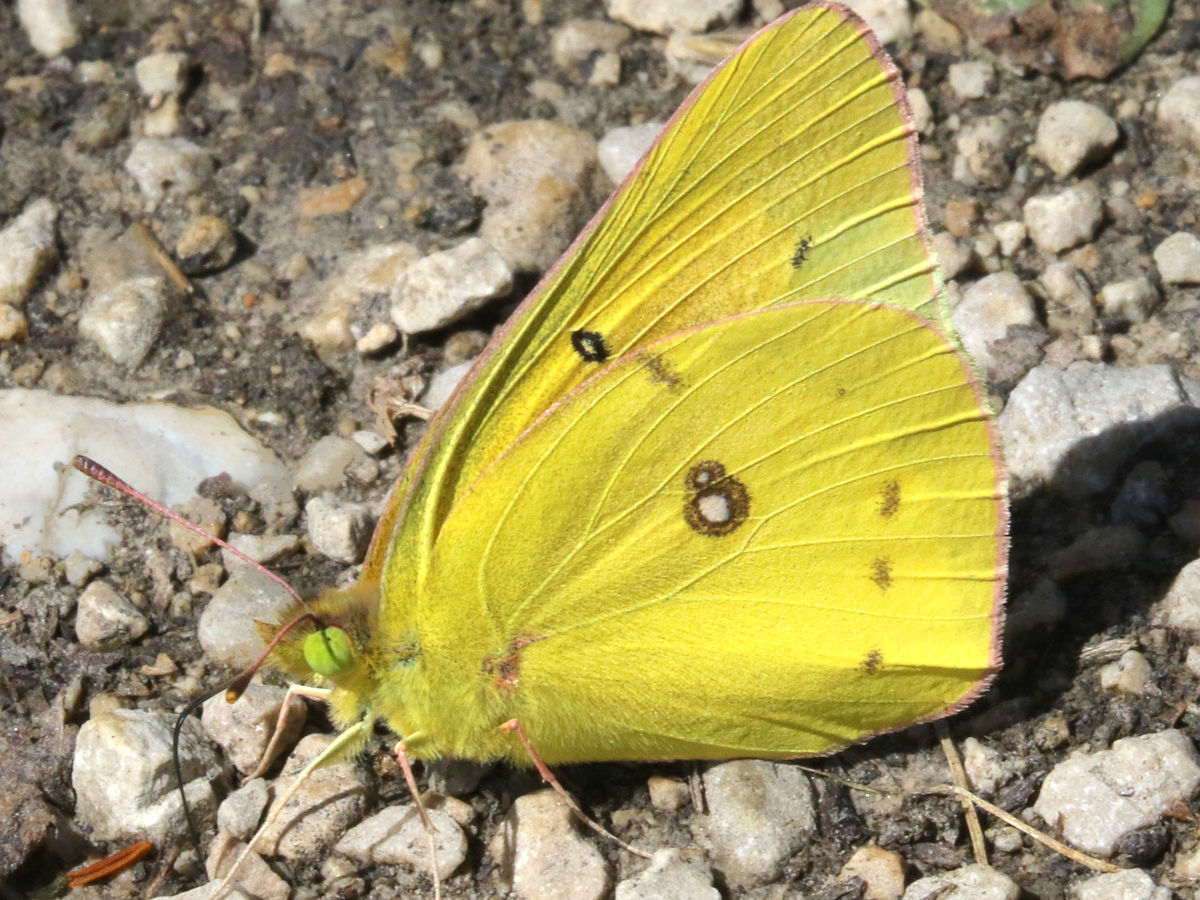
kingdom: Animalia
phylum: Arthropoda
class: Insecta
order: Lepidoptera
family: Pieridae
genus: Colias
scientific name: Colias eurytheme
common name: Alfalfa butterfly
